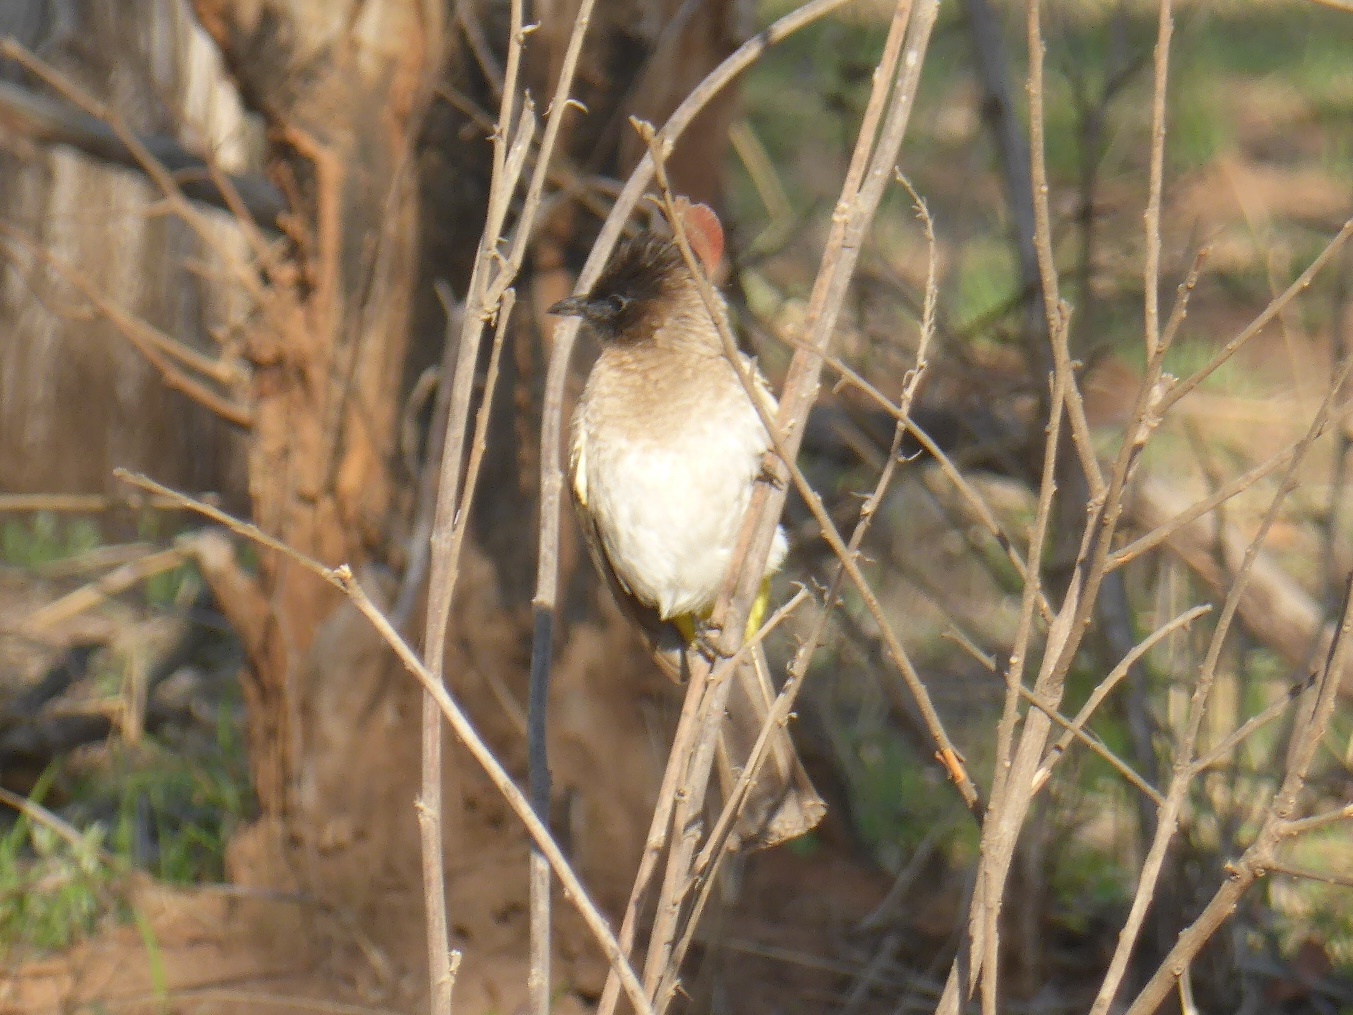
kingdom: Animalia
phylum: Chordata
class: Aves
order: Passeriformes
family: Pycnonotidae
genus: Pycnonotus
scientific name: Pycnonotus barbatus
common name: Common bulbul
